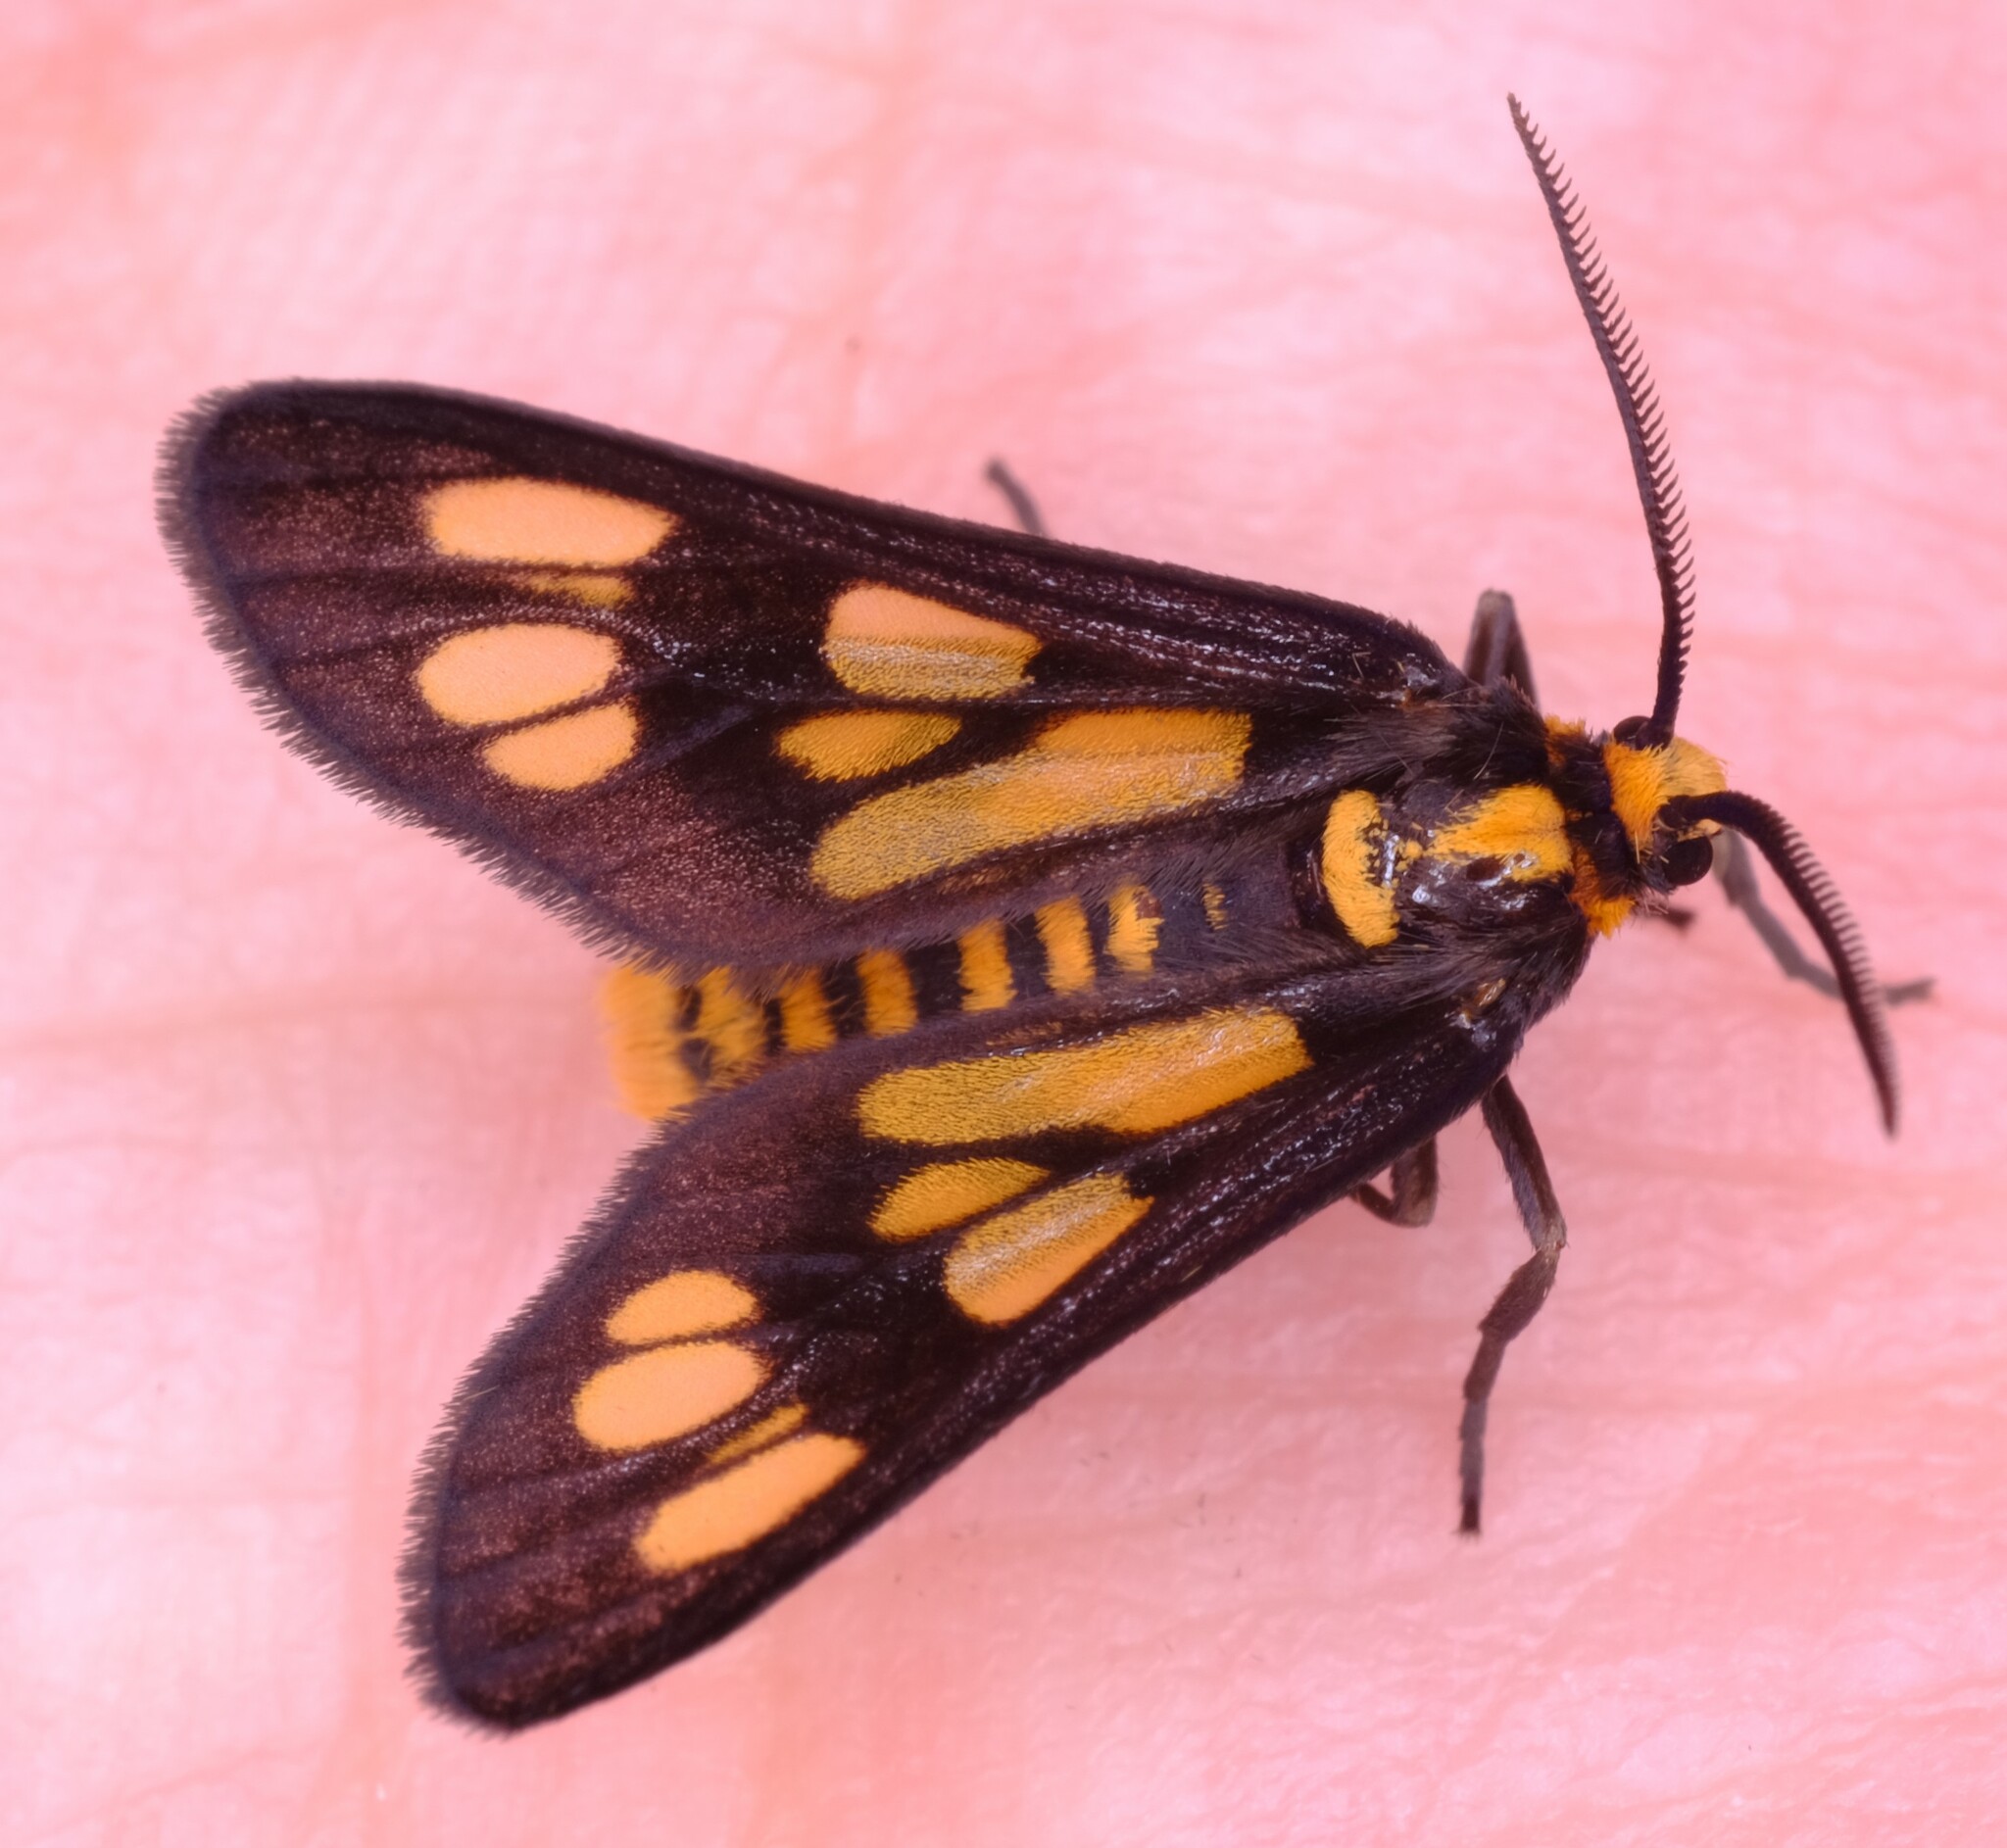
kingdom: Animalia
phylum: Arthropoda
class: Insecta
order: Lepidoptera
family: Erebidae
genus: Eressa
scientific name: Eressa geographica
